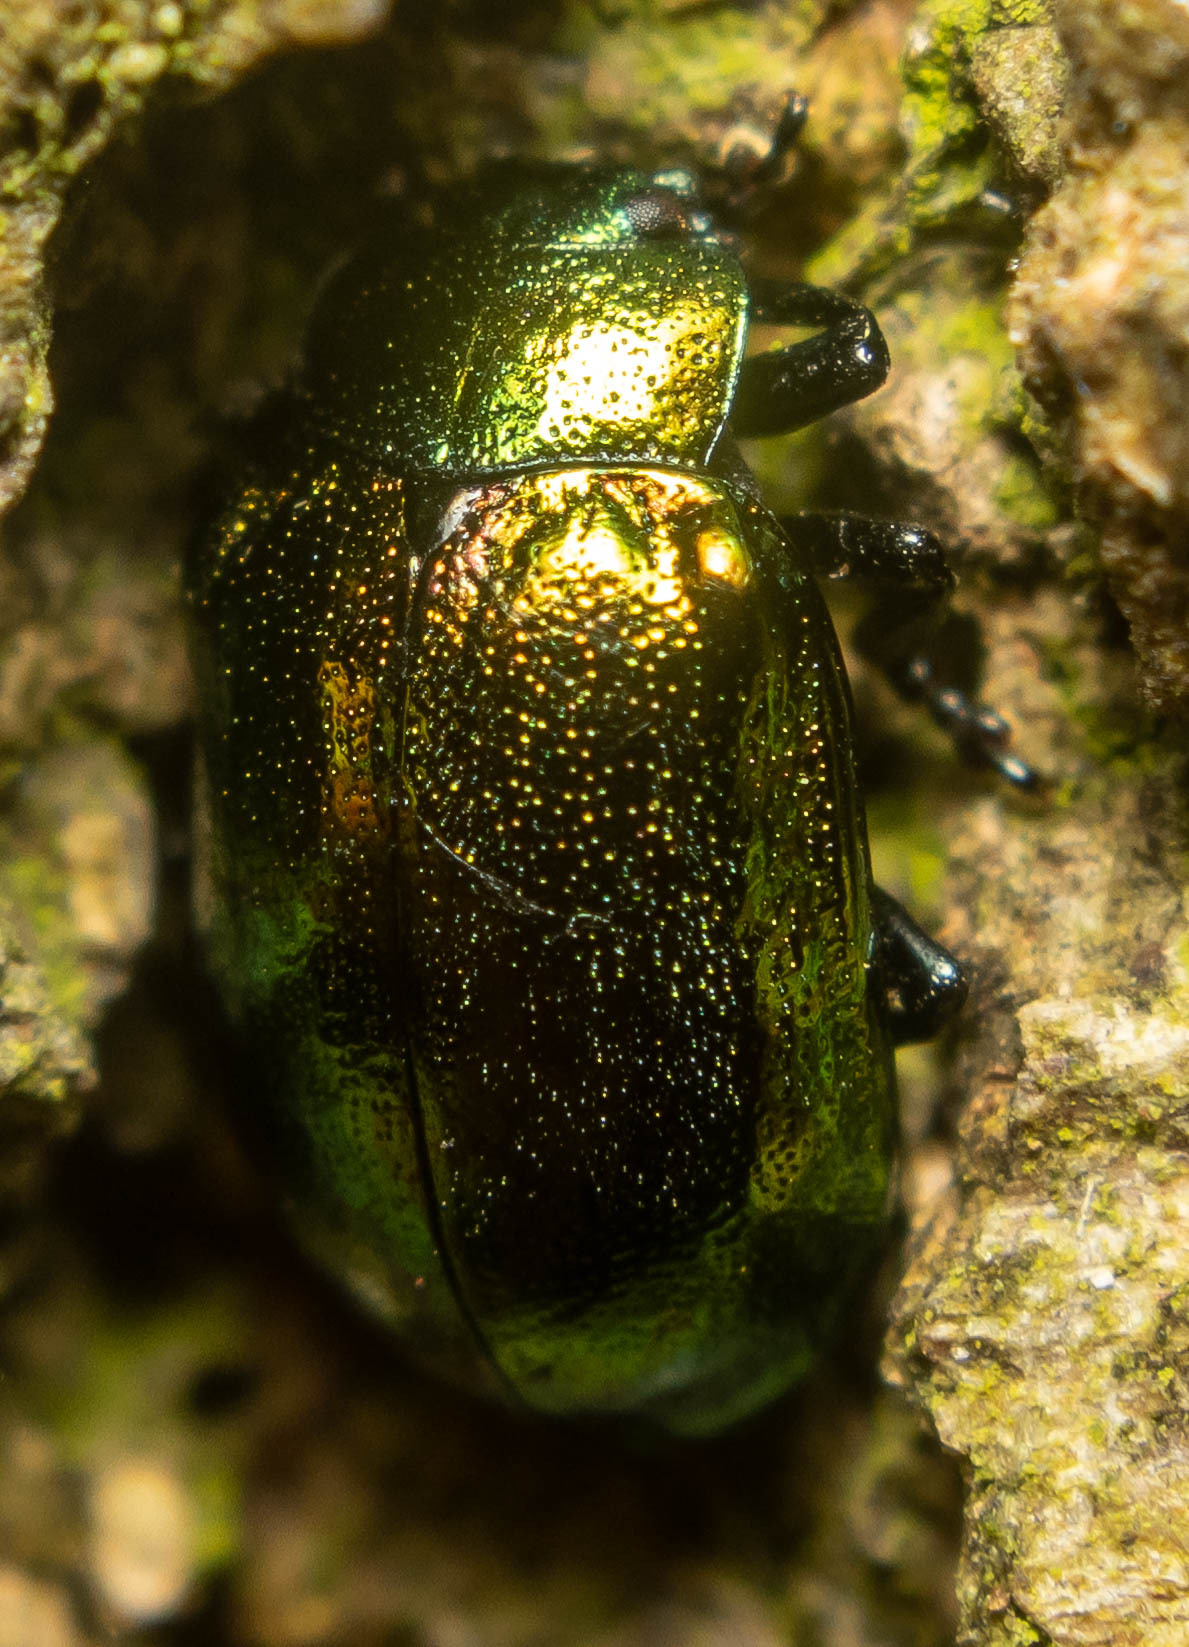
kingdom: Animalia
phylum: Arthropoda
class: Insecta
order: Coleoptera
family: Chrysomelidae
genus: Plagiosterna
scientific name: Plagiosterna aenea
